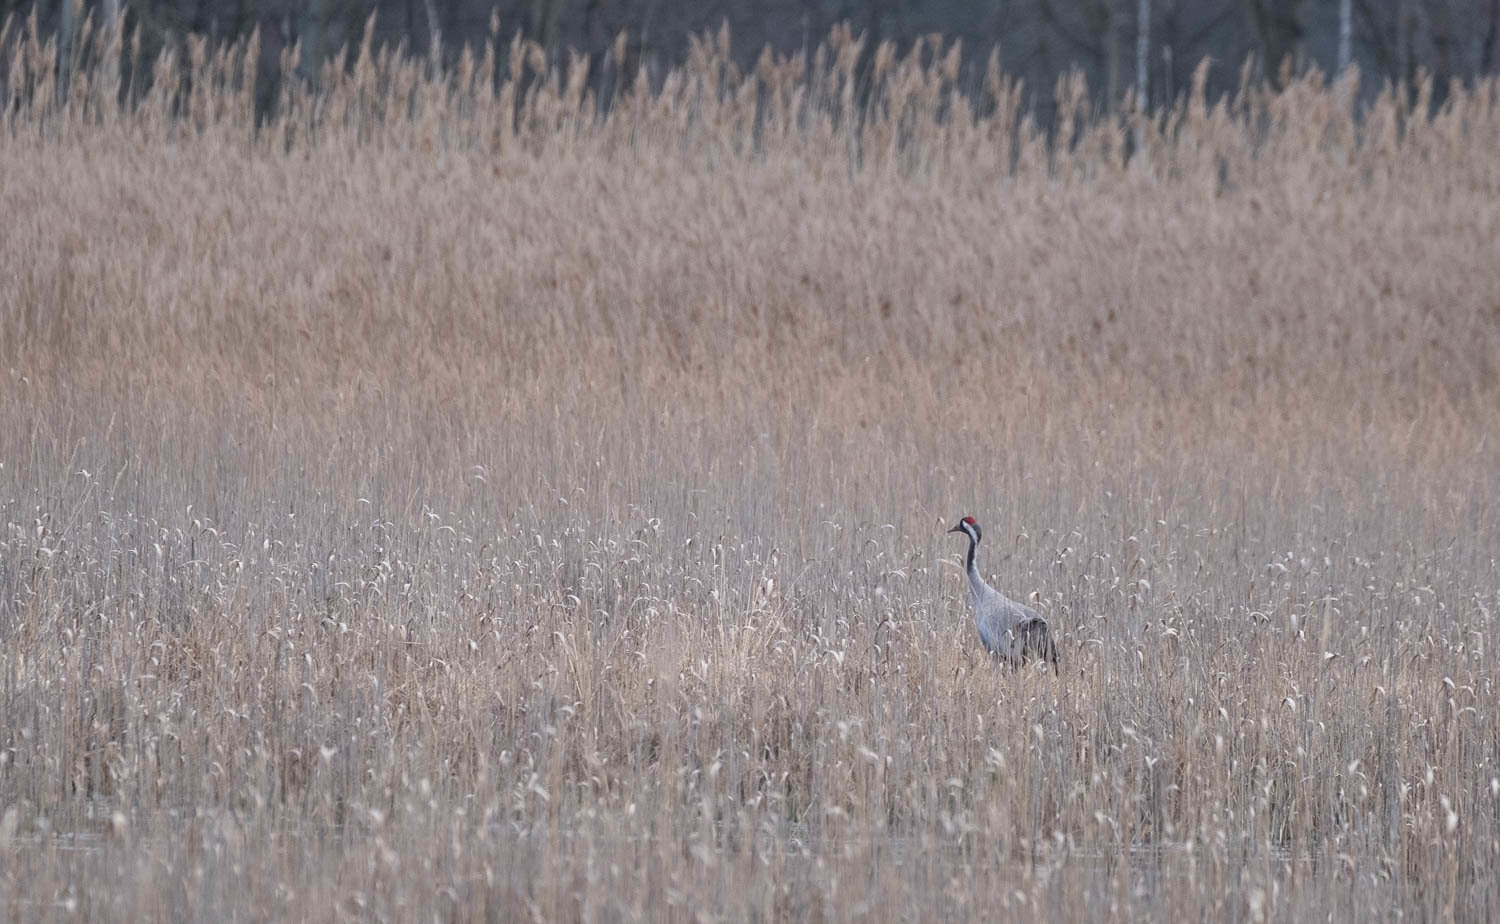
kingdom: Animalia
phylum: Chordata
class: Aves
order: Gruiformes
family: Gruidae
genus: Grus
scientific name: Grus grus
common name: Common crane
